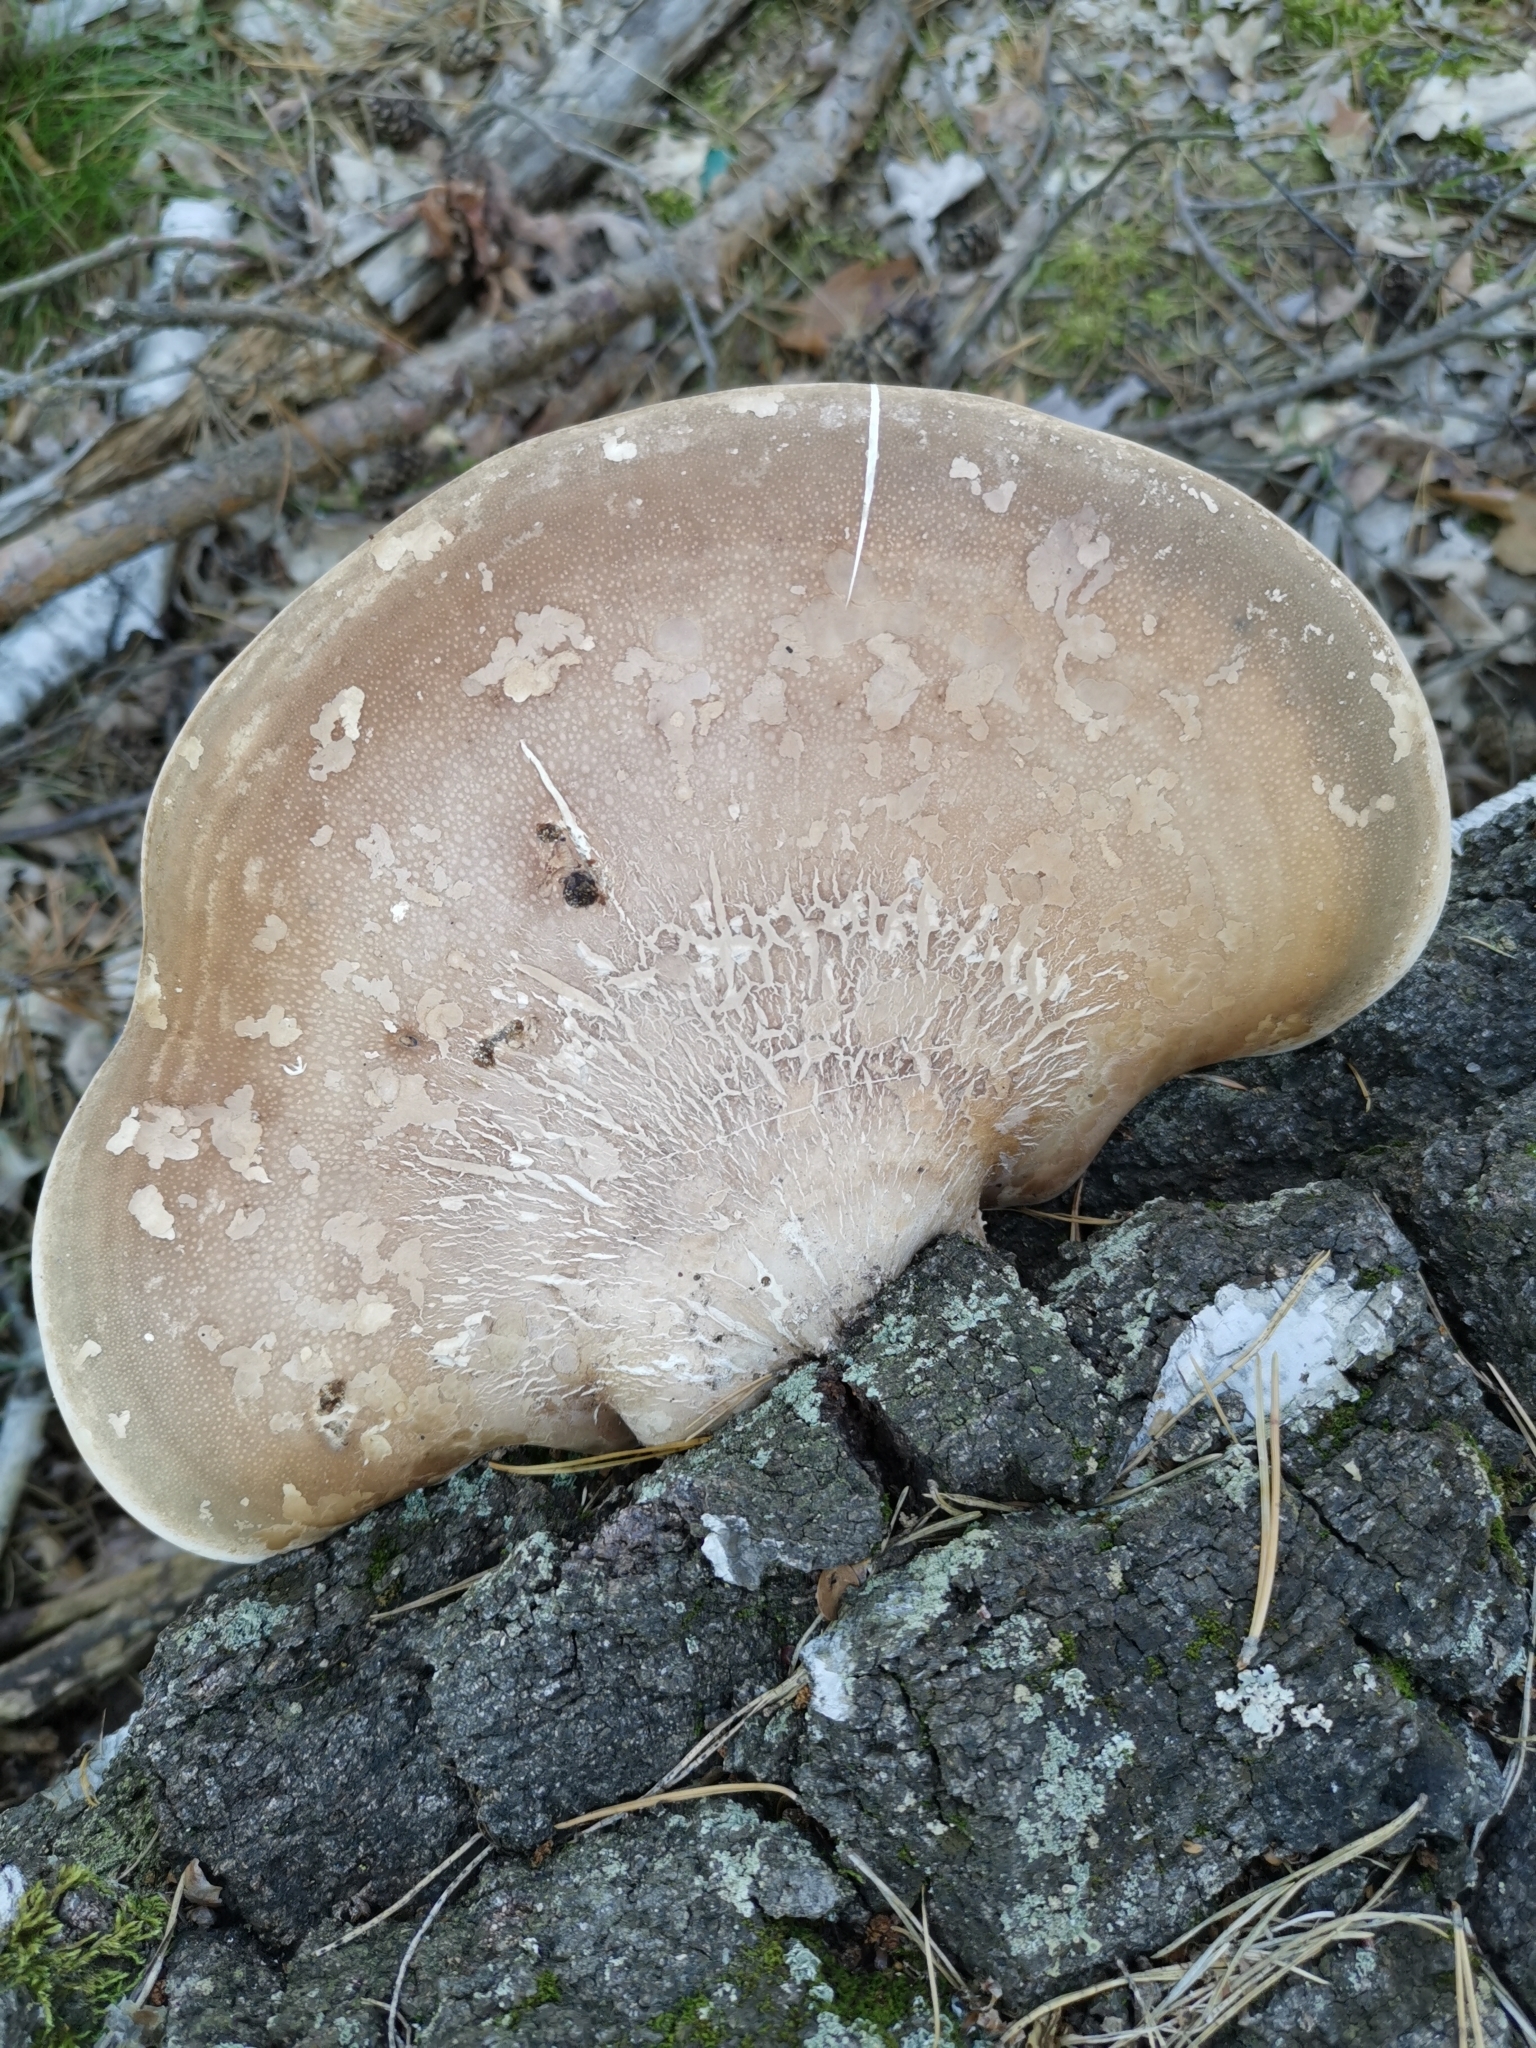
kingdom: Fungi
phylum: Basidiomycota
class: Agaricomycetes
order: Polyporales
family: Fomitopsidaceae
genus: Fomitopsis
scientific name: Fomitopsis betulina
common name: Birch polypore
